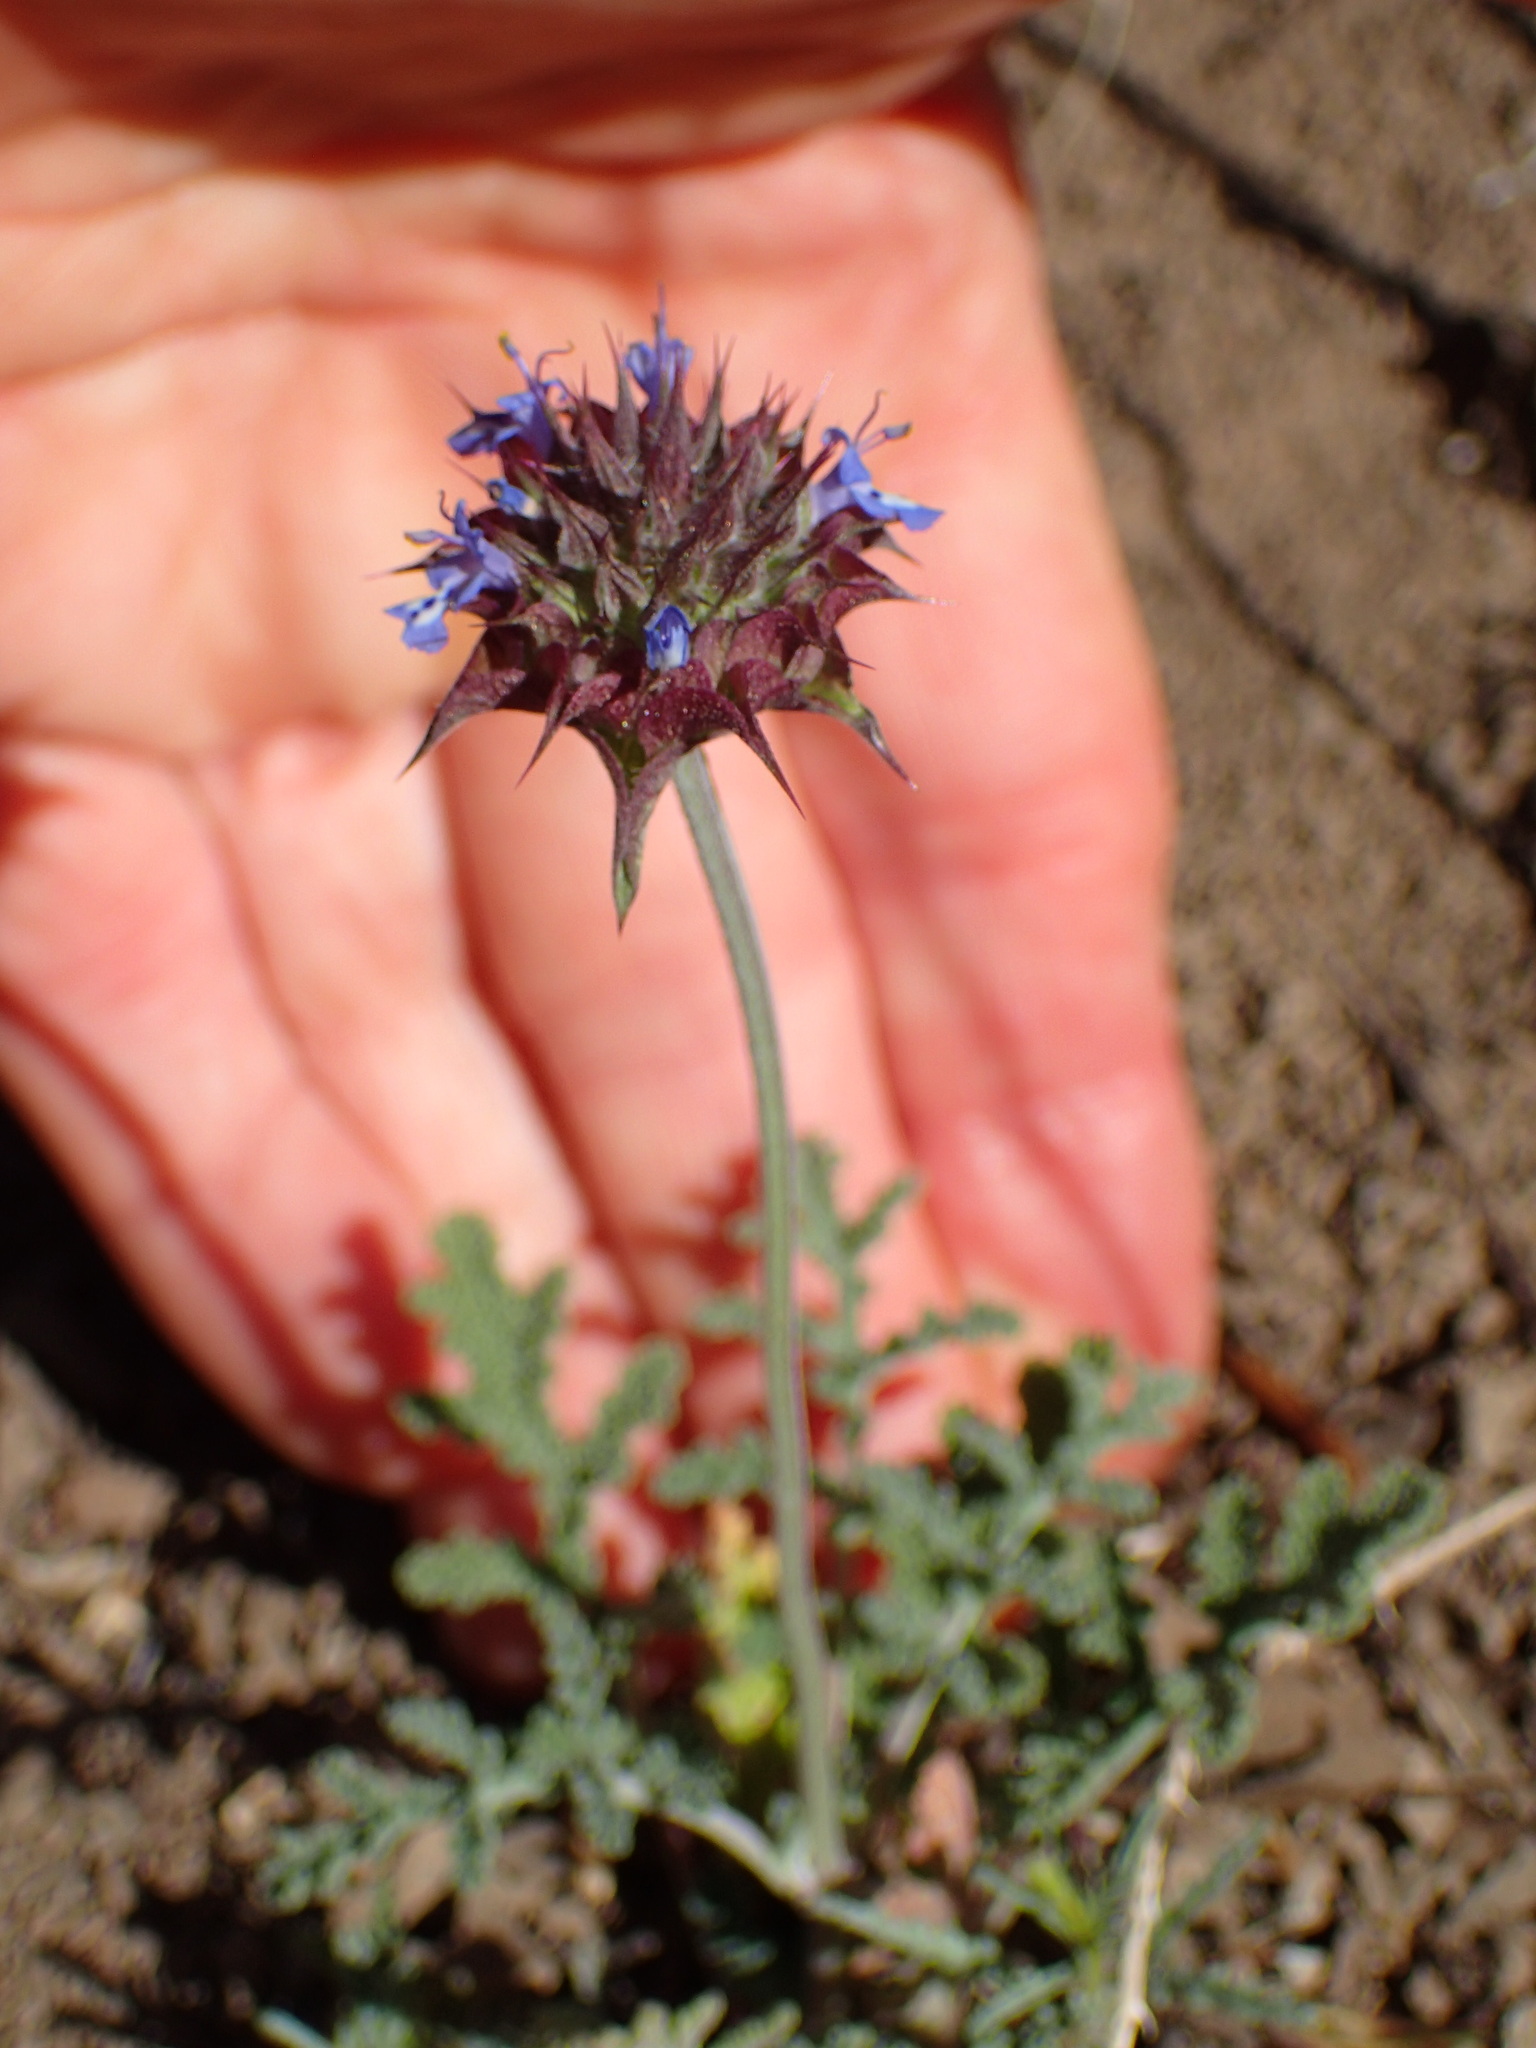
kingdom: Plantae
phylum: Tracheophyta
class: Magnoliopsida
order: Lamiales
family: Lamiaceae
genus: Salvia
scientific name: Salvia columbariae
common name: Chia
